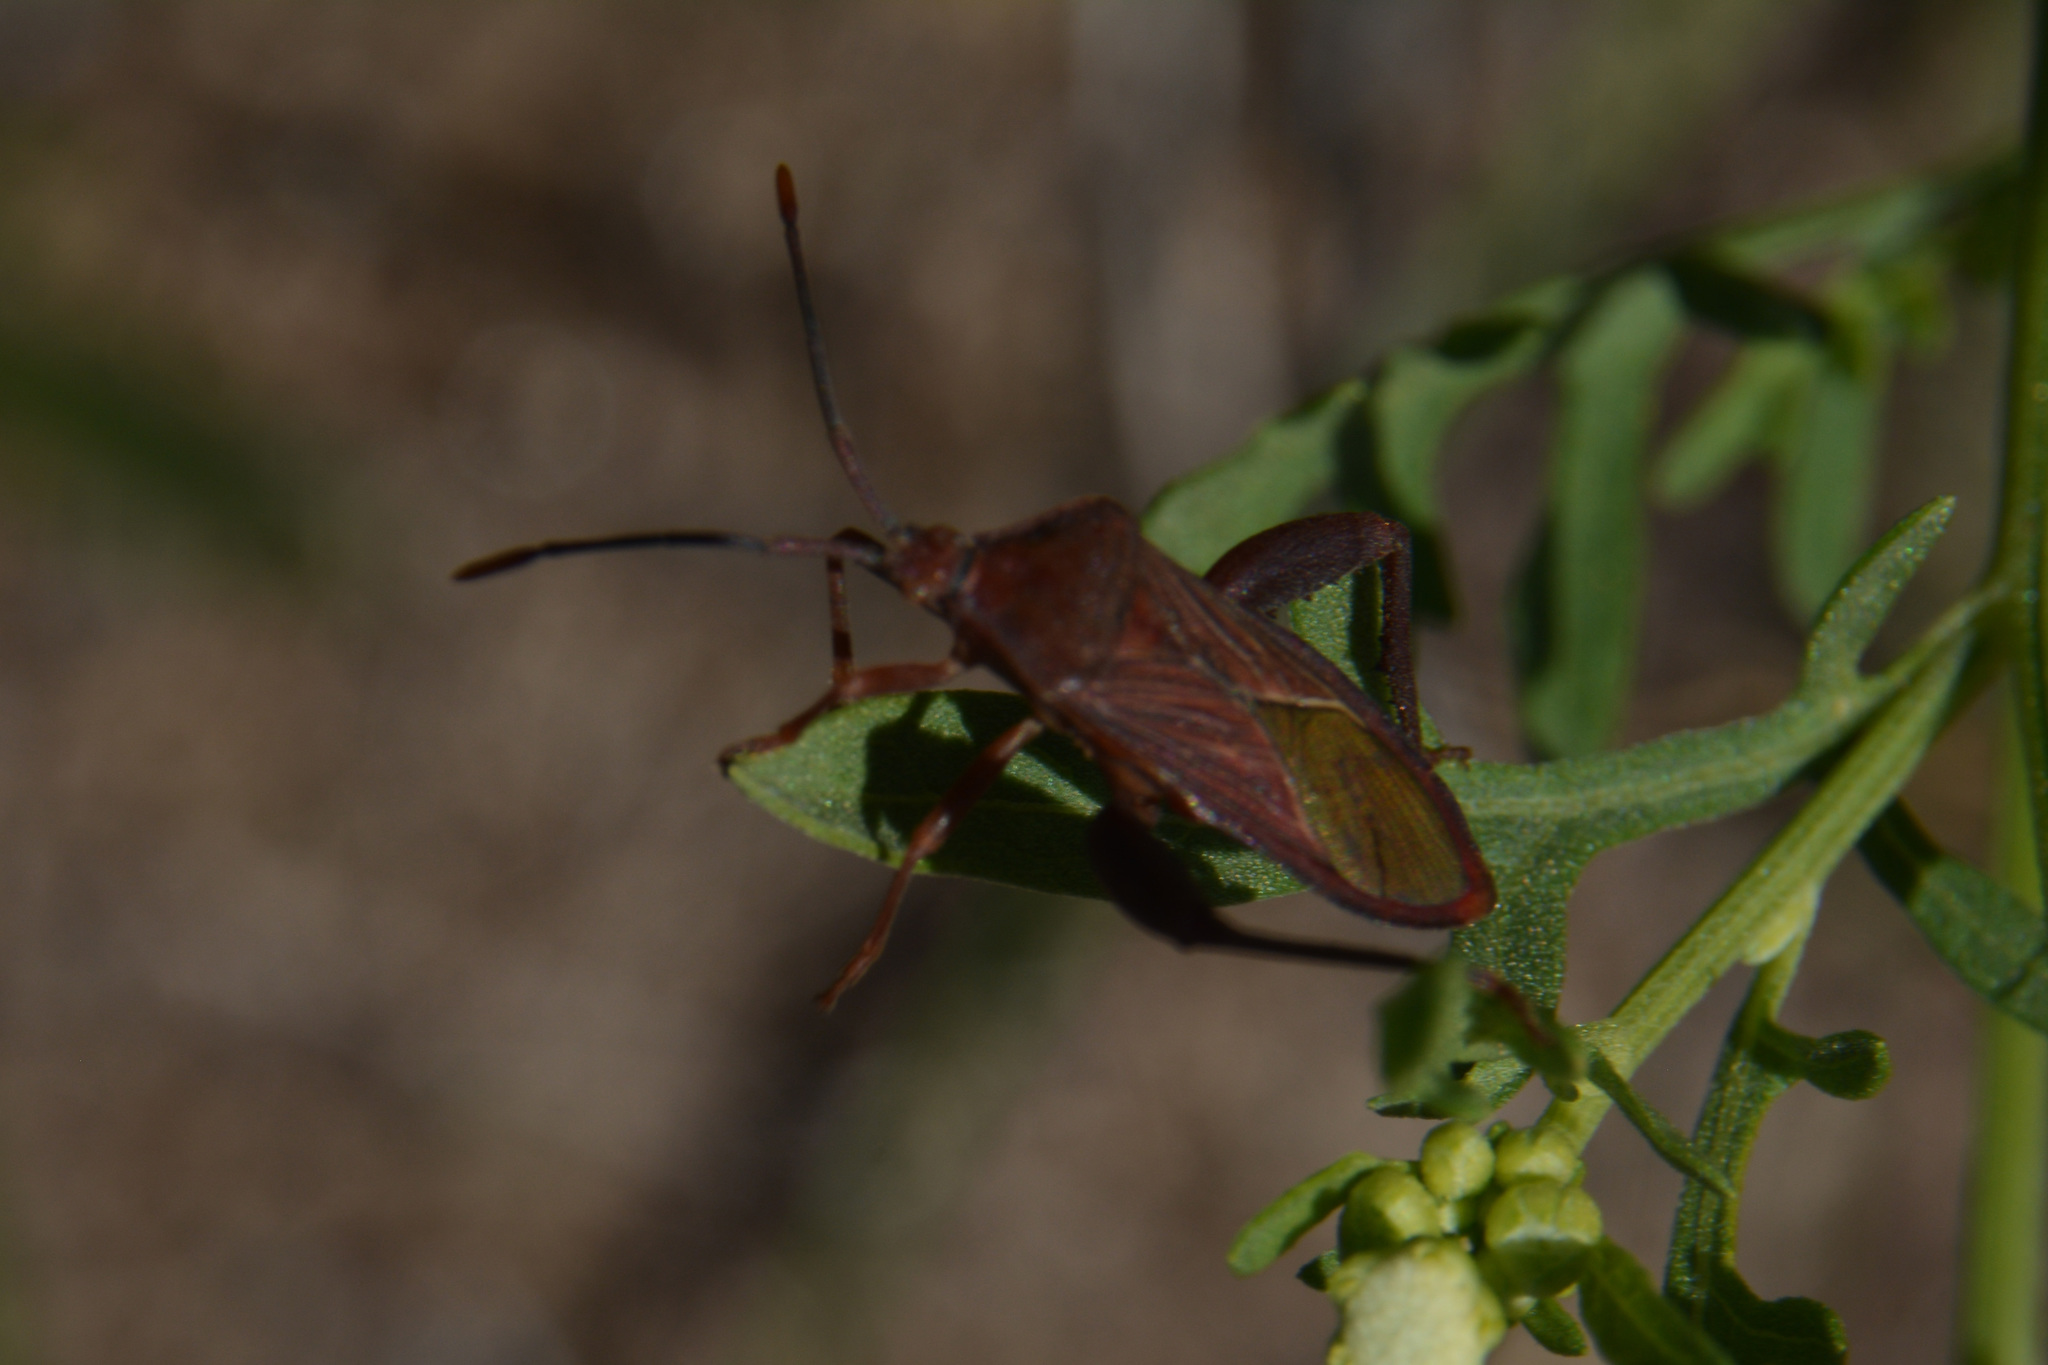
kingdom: Animalia
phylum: Arthropoda
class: Insecta
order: Hemiptera
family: Coreidae
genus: Athaumastus
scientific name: Athaumastus haematicus
